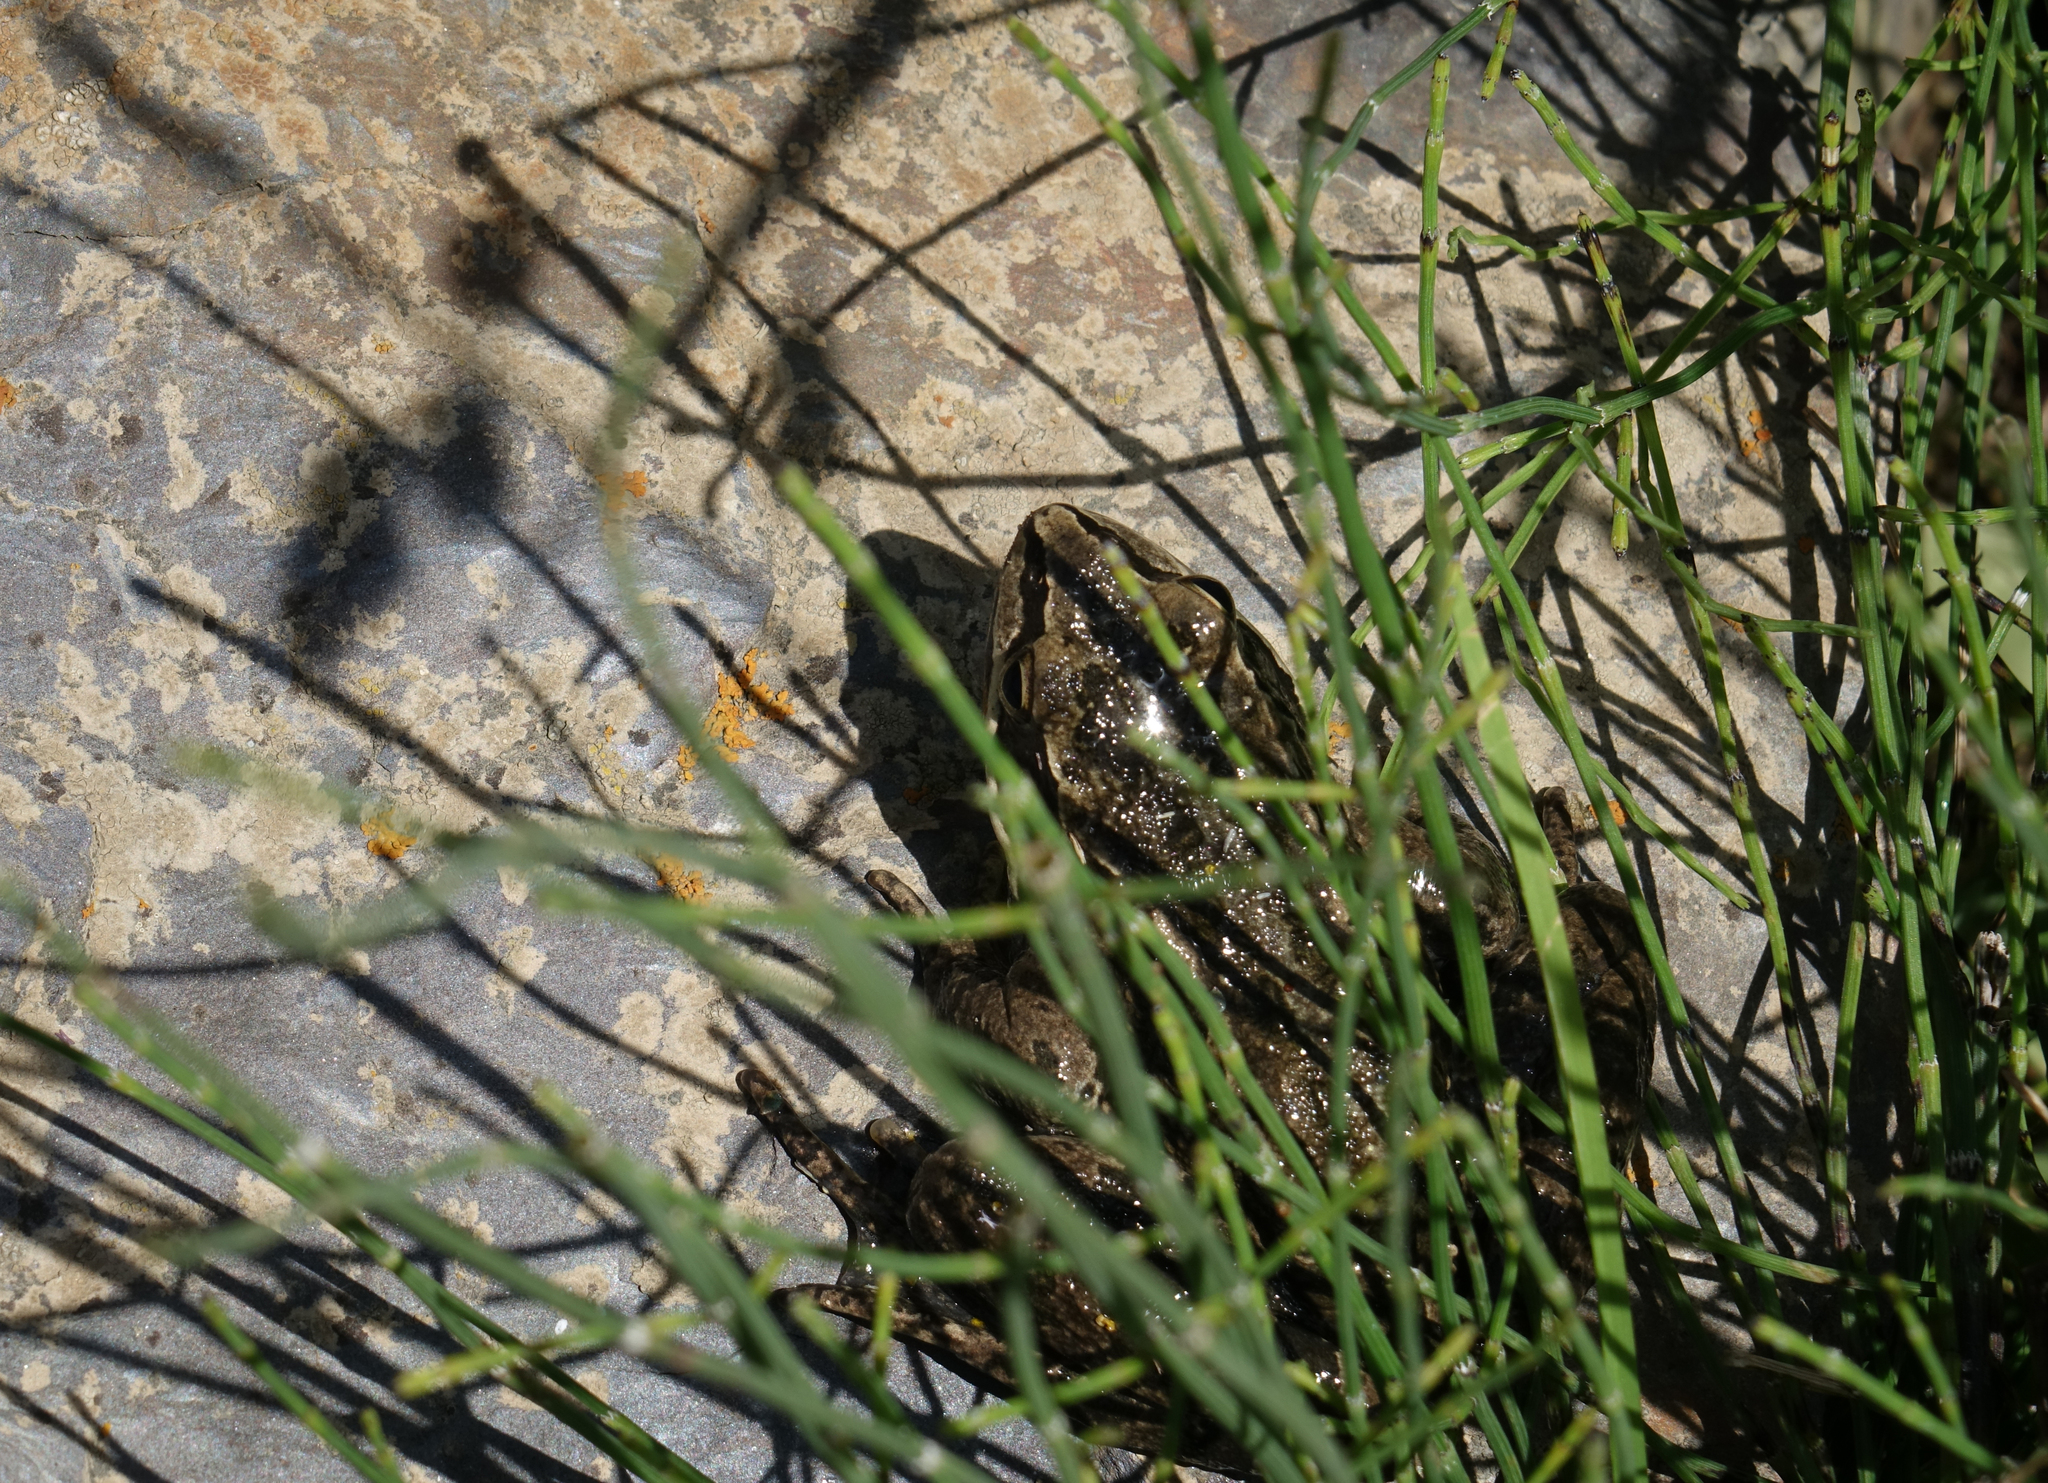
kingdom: Animalia
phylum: Chordata
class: Amphibia
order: Anura
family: Ranidae
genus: Rana
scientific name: Rana macrocnemis
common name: Banded frog
